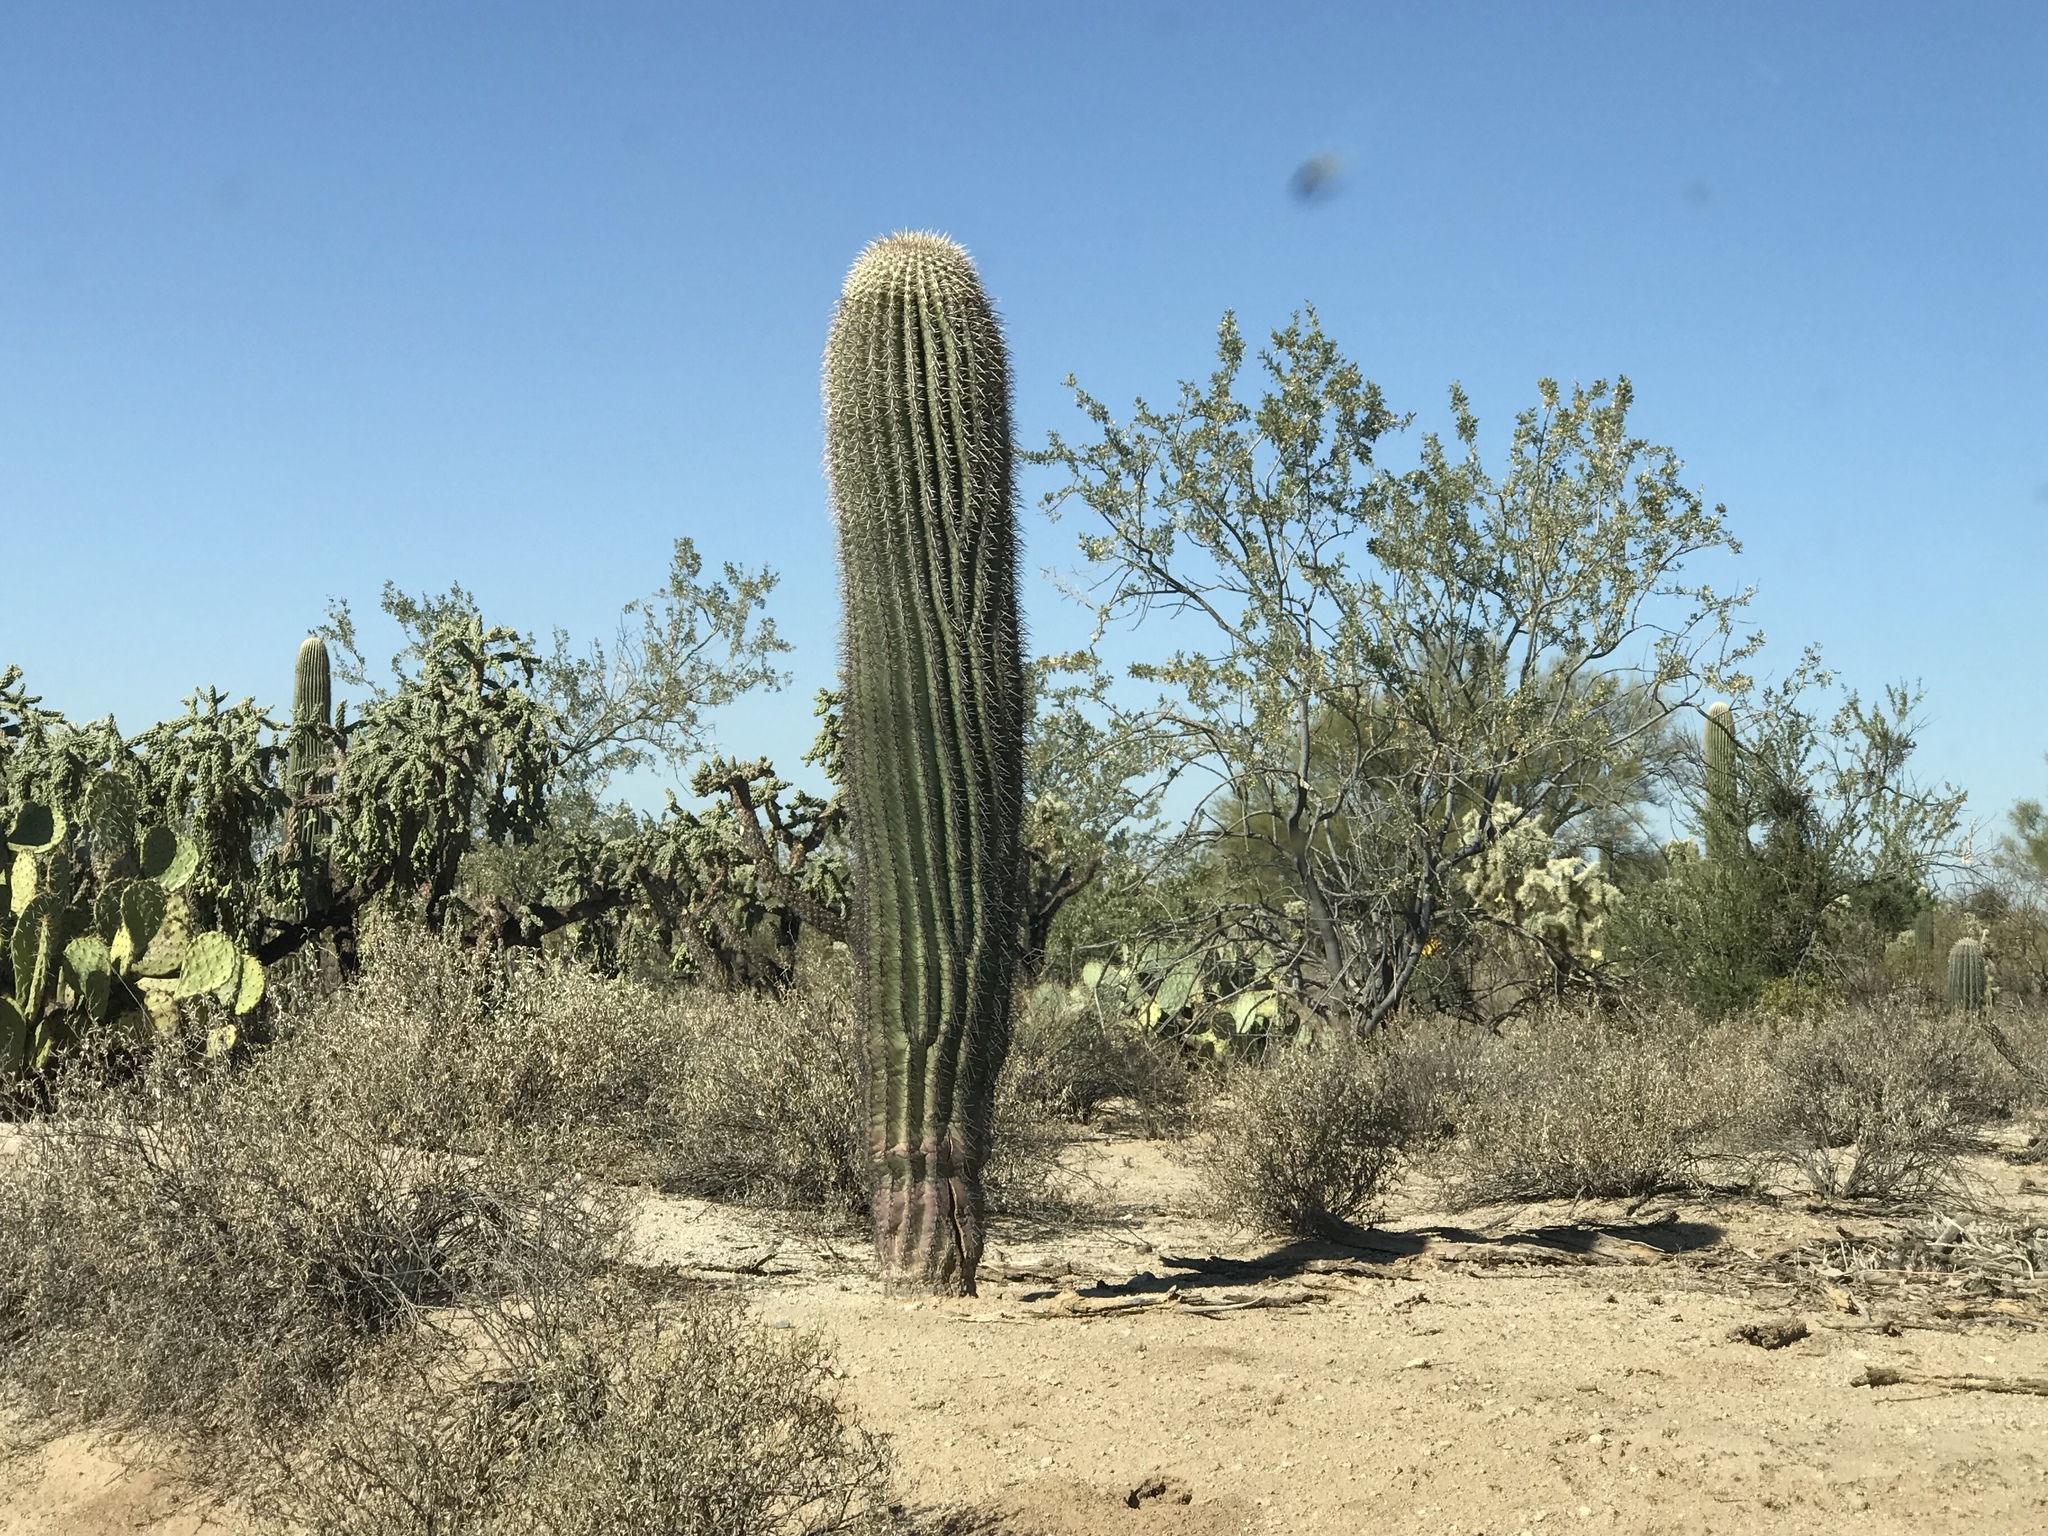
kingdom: Plantae
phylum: Tracheophyta
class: Magnoliopsida
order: Caryophyllales
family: Cactaceae
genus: Carnegiea
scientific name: Carnegiea gigantea
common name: Saguaro
